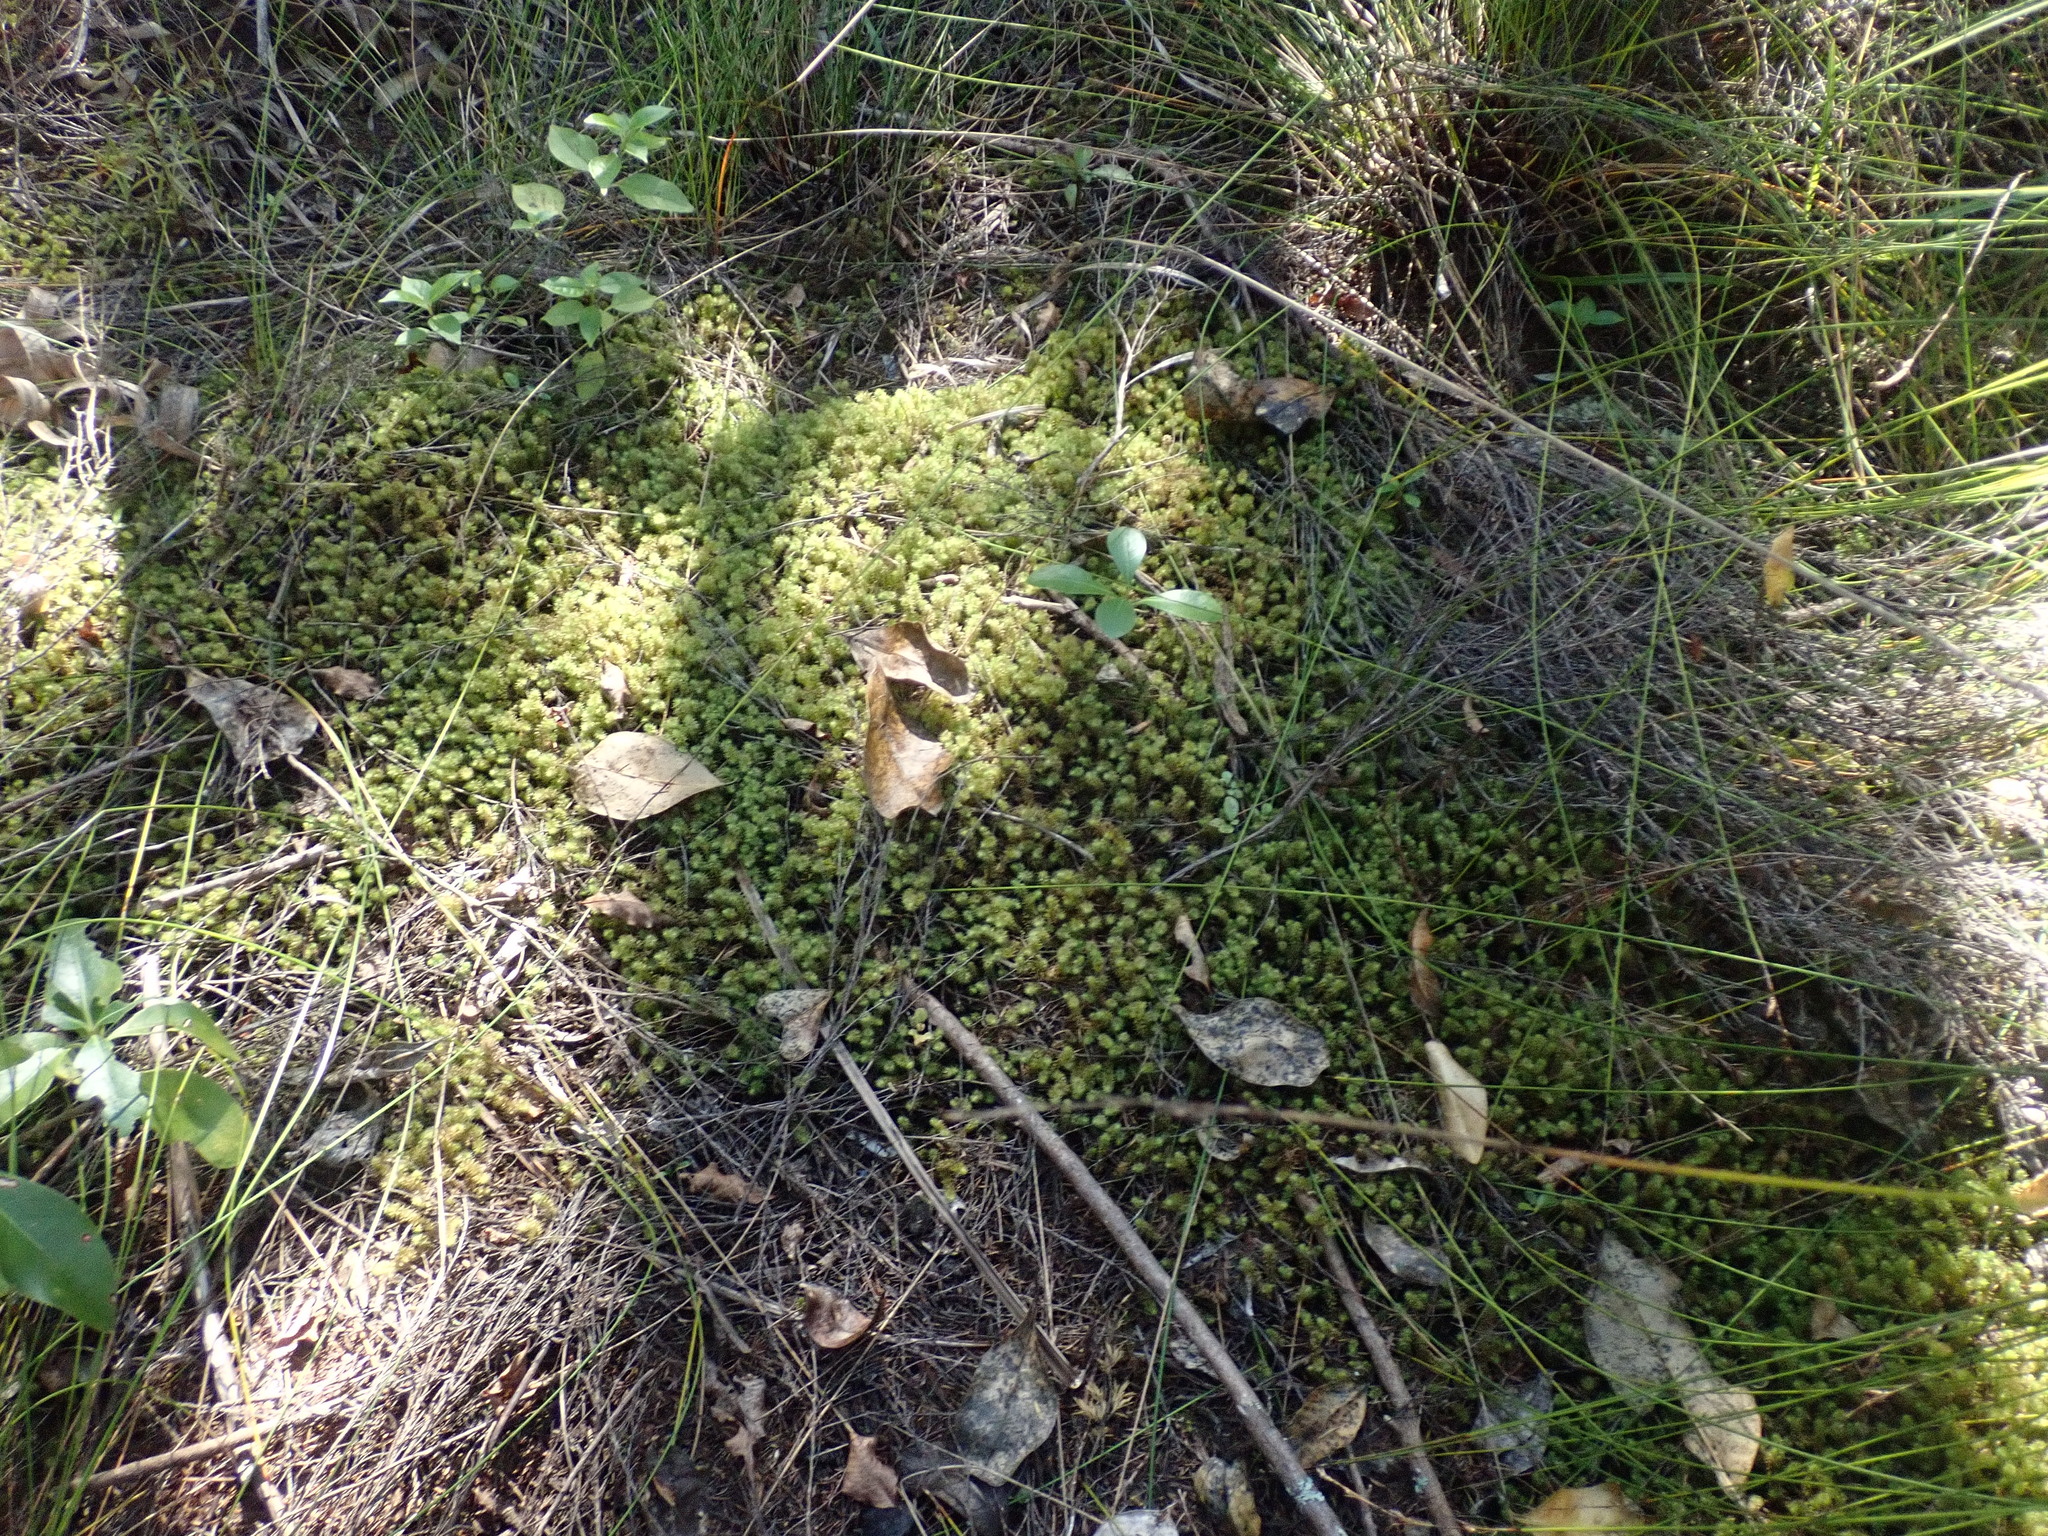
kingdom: Plantae
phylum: Bryophyta
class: Bryopsida
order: Ptychomniales
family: Ptychomniaceae
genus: Ptychomnion
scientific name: Ptychomnion aciculare
